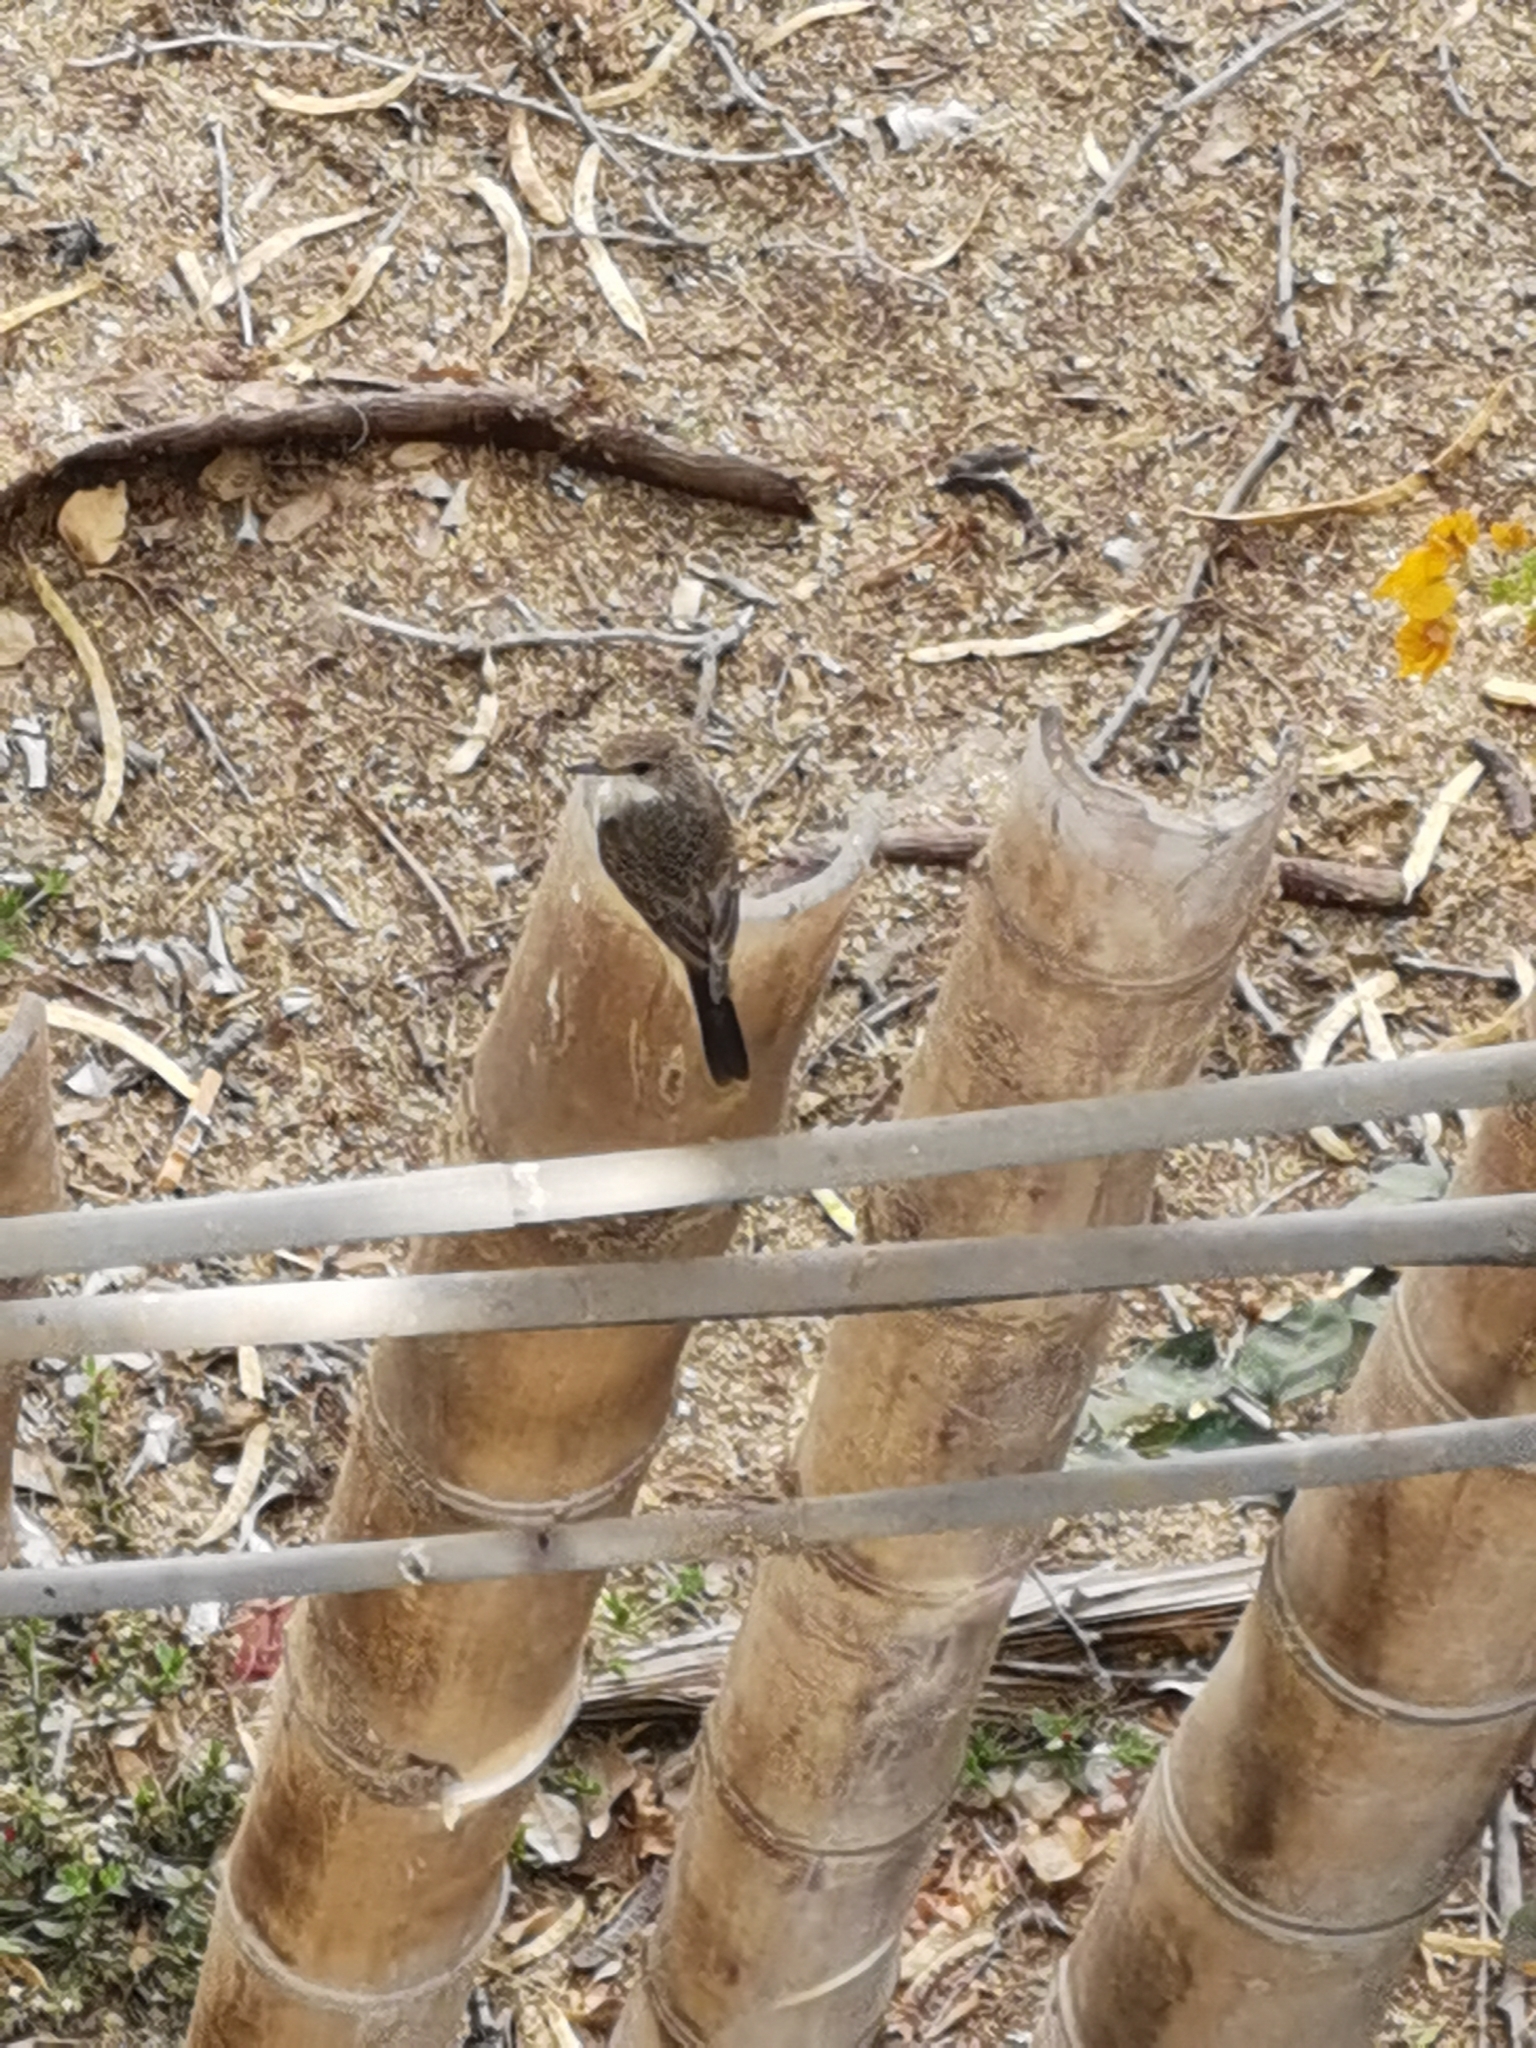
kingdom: Animalia
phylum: Chordata
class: Aves
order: Passeriformes
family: Tyrannidae
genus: Pyrocephalus
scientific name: Pyrocephalus rubinus
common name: Vermilion flycatcher
